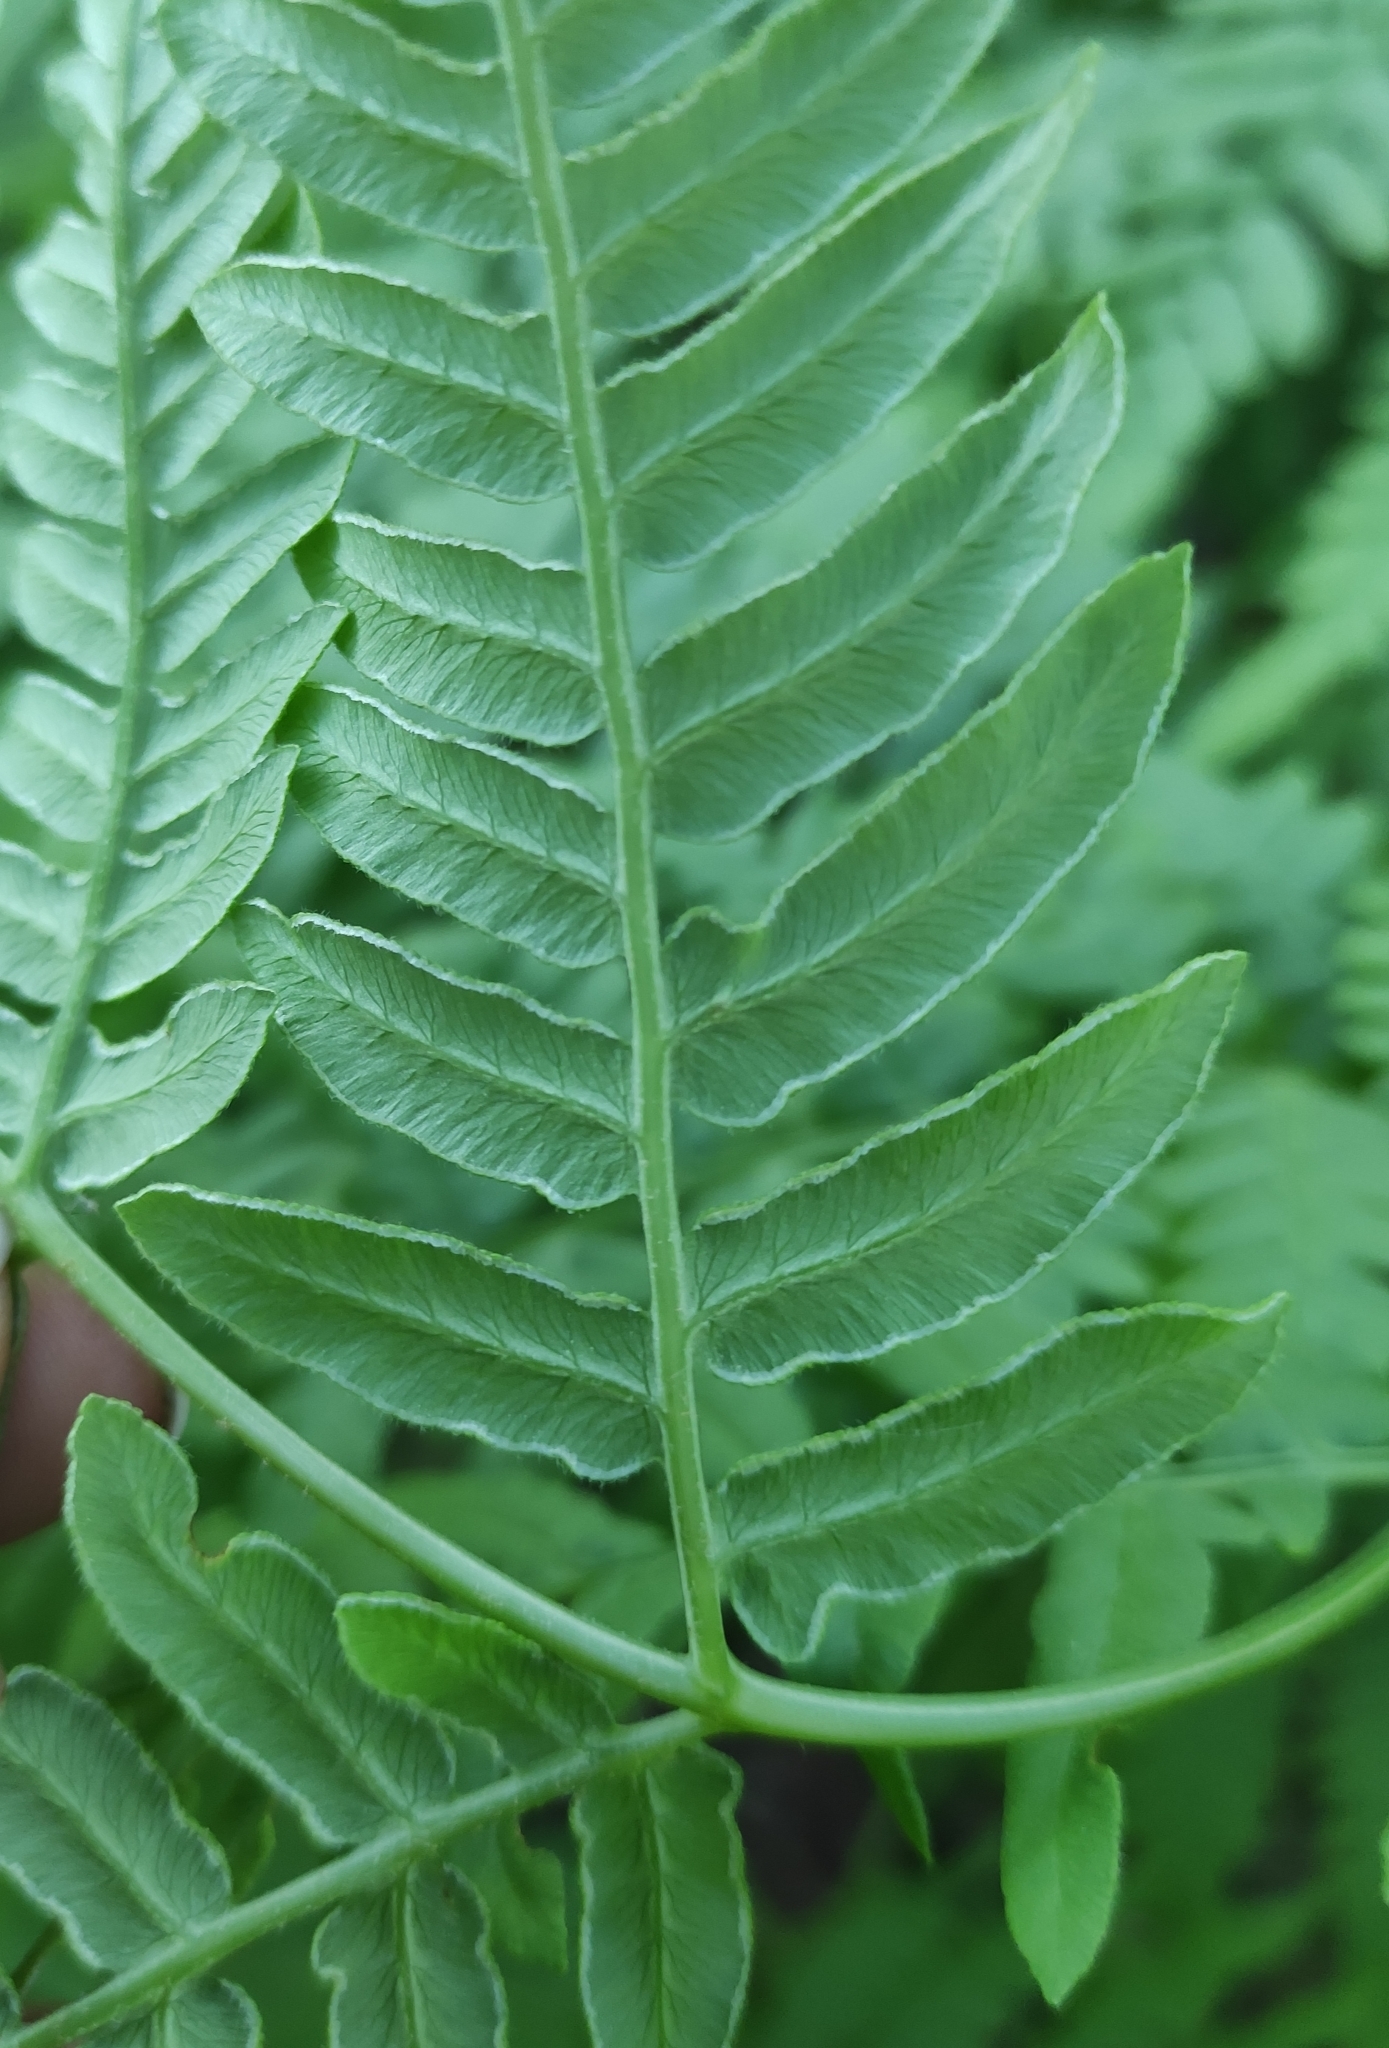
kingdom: Plantae
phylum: Tracheophyta
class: Polypodiopsida
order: Polypodiales
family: Dennstaedtiaceae
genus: Pteridium
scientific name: Pteridium aquilinum
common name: Bracken
